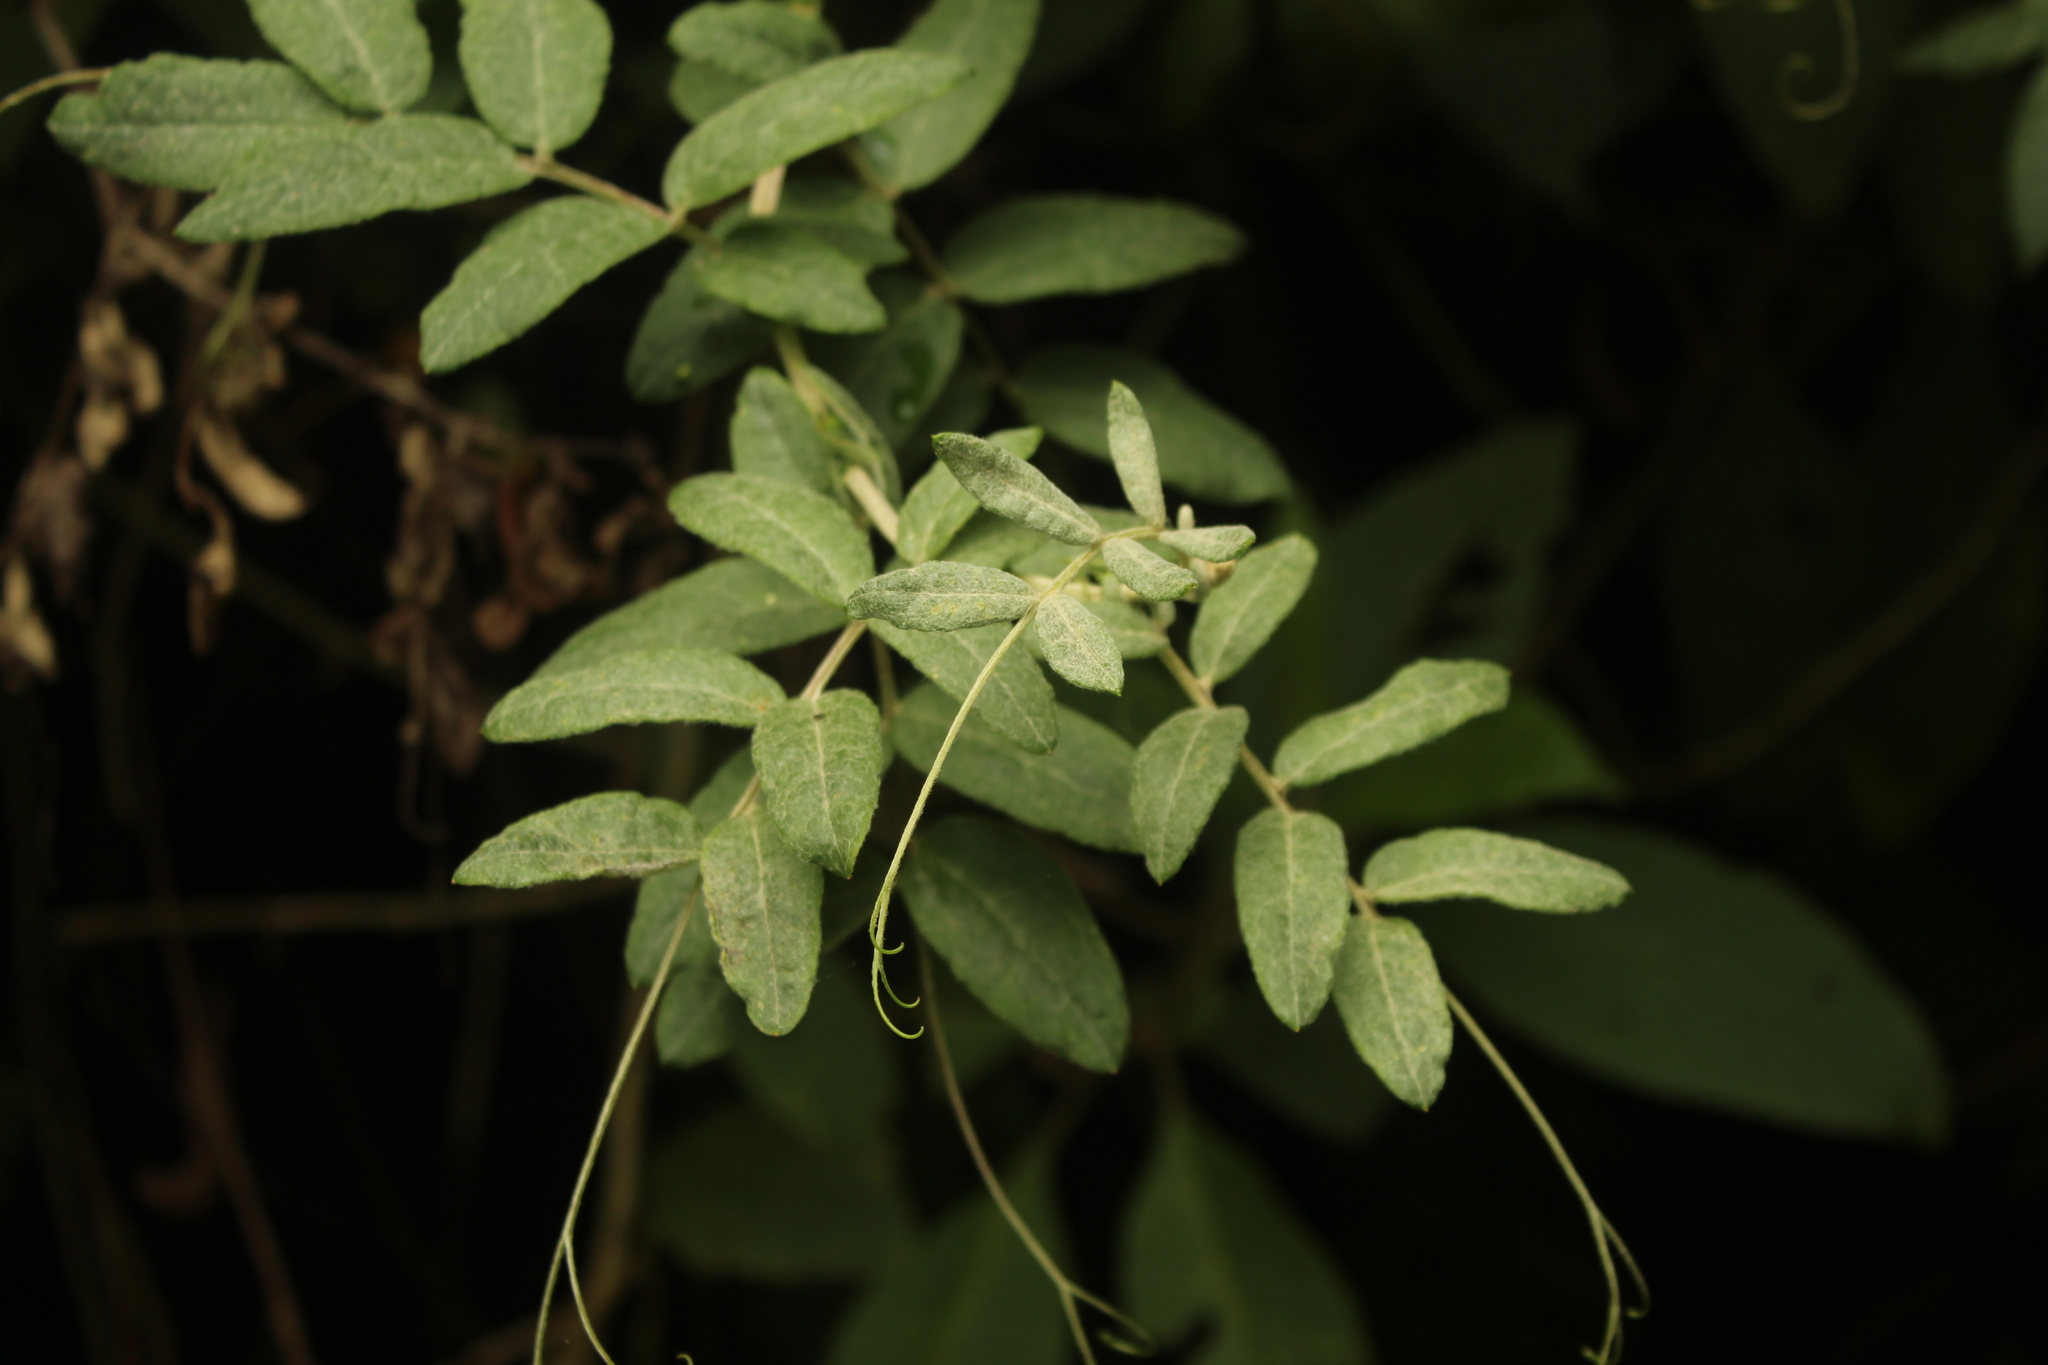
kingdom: Plantae
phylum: Tracheophyta
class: Magnoliopsida
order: Asterales
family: Asteraceae
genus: Mutisia
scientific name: Mutisia clematis
